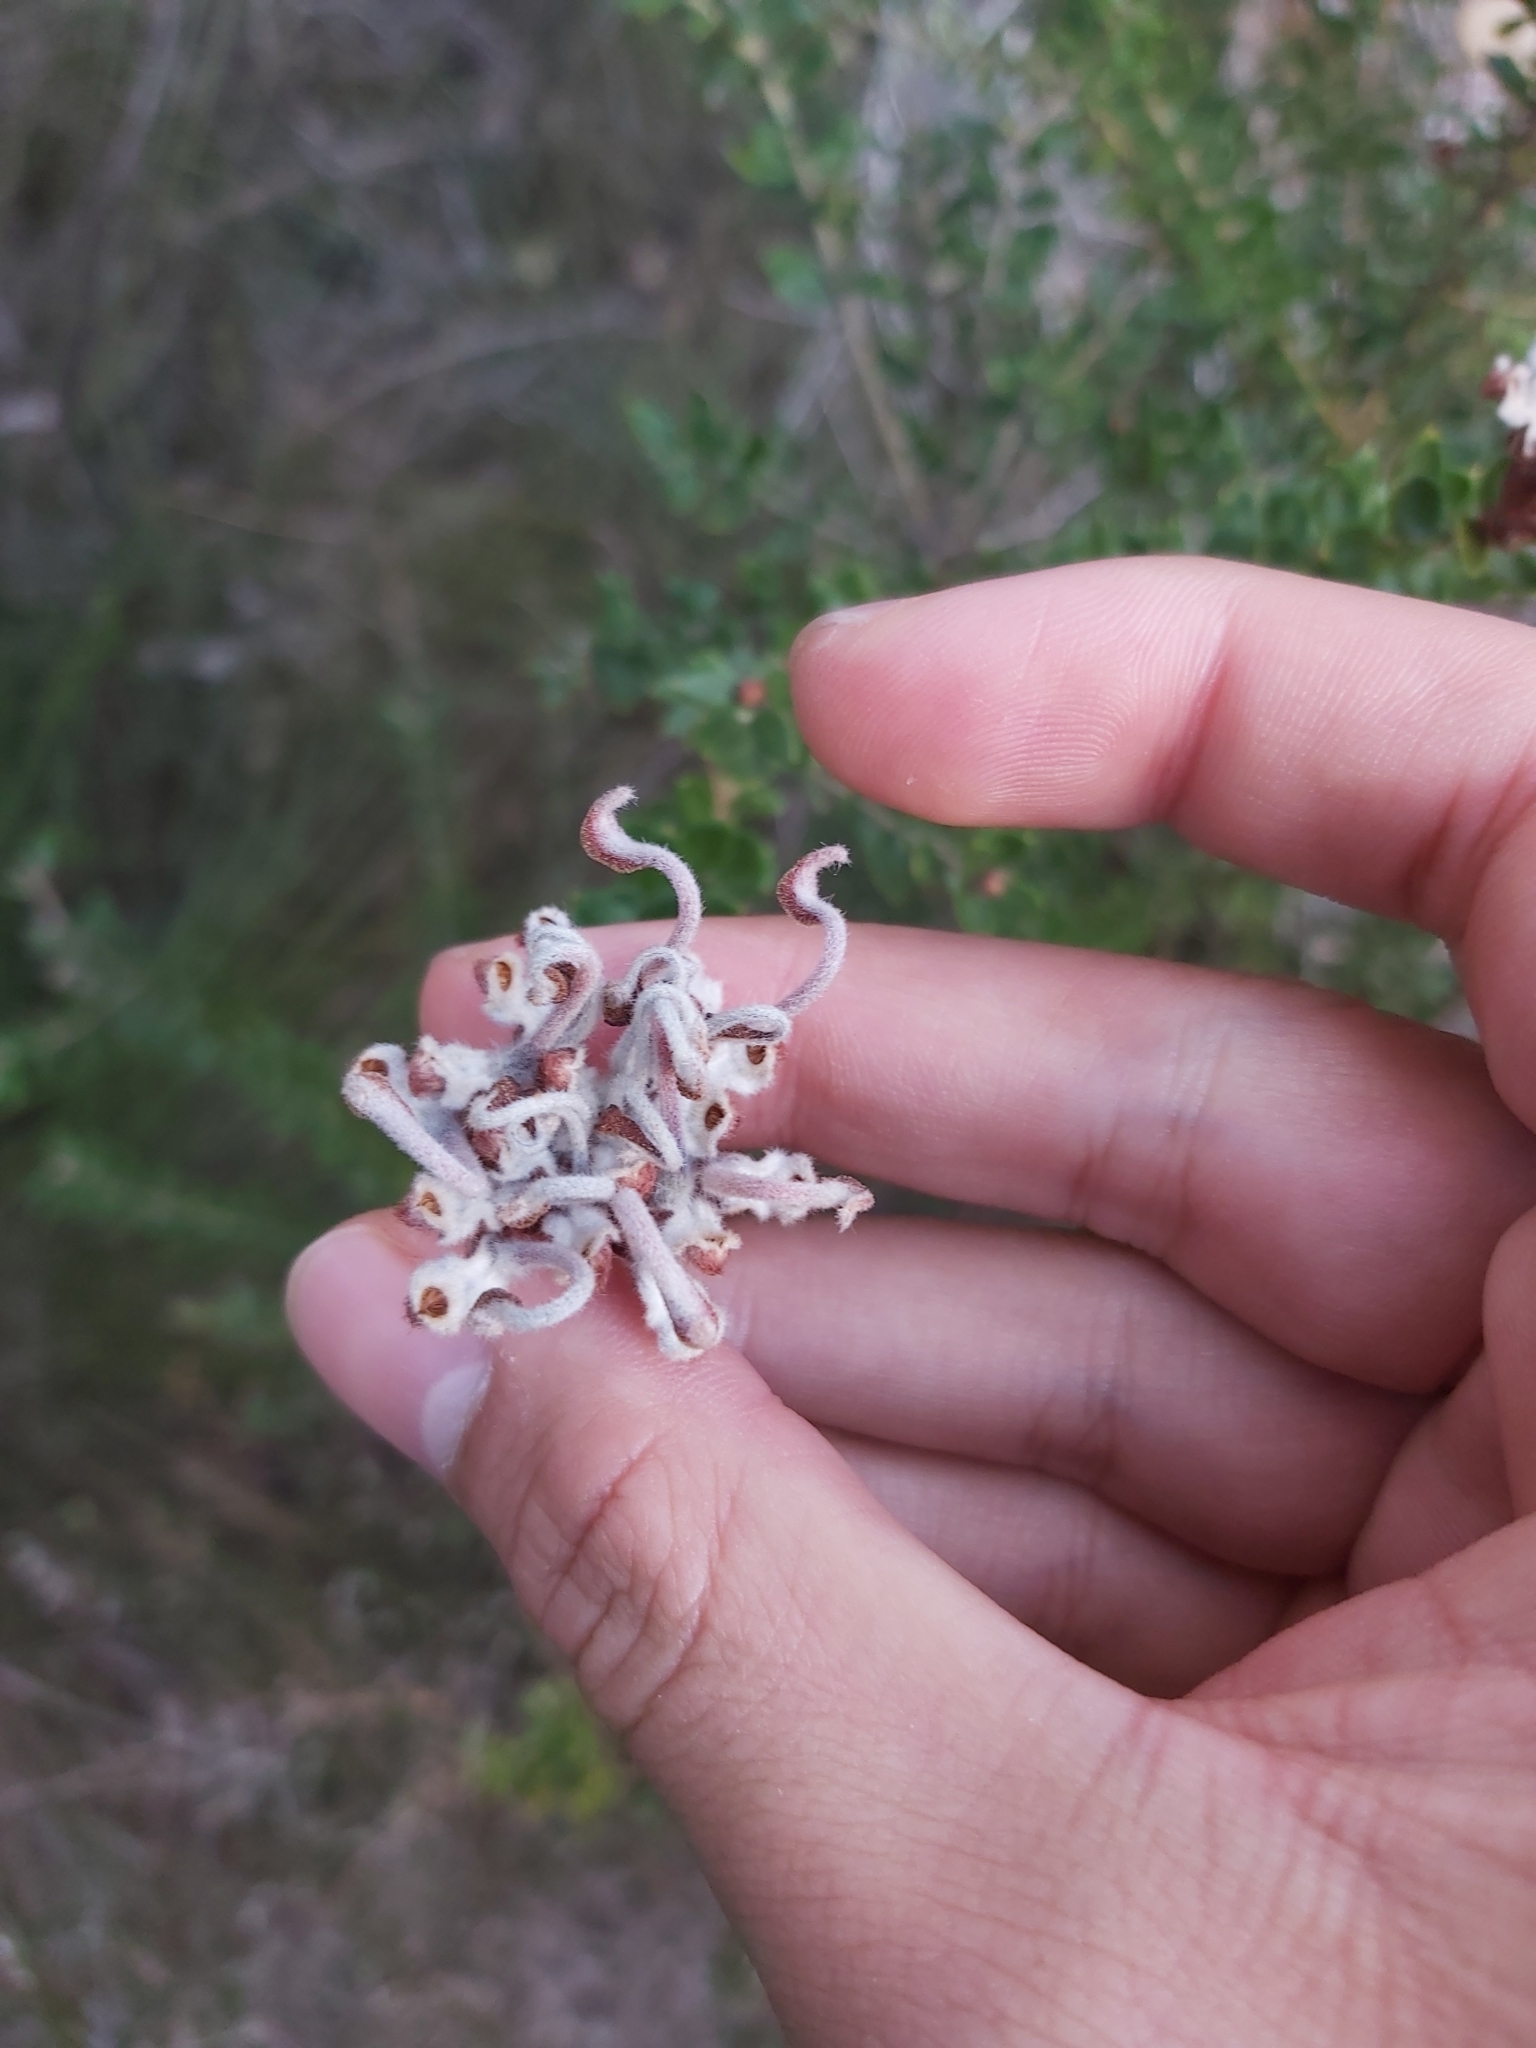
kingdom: Plantae
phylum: Tracheophyta
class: Magnoliopsida
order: Proteales
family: Proteaceae
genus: Grevillea
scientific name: Grevillea buxifolia
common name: Grey spiderflower
